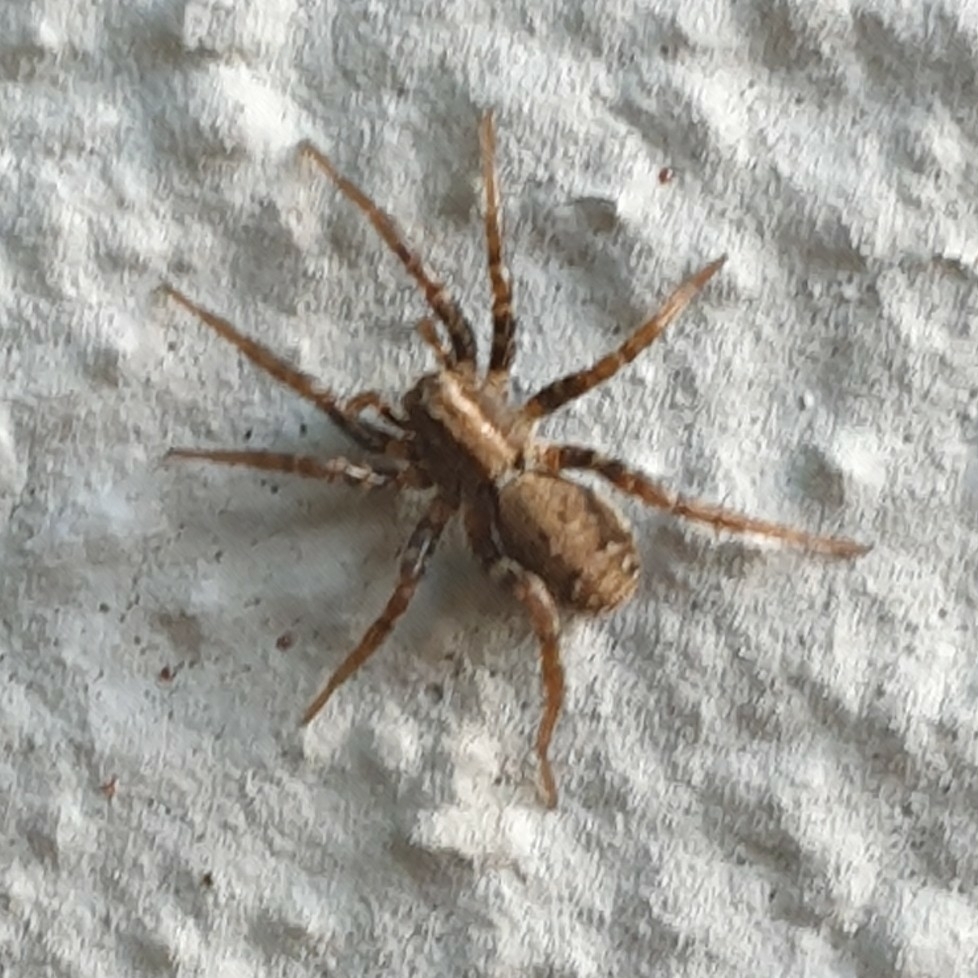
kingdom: Animalia
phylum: Arthropoda
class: Arachnida
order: Araneae
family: Lycosidae
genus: Xerolycosa
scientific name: Xerolycosa miniata
